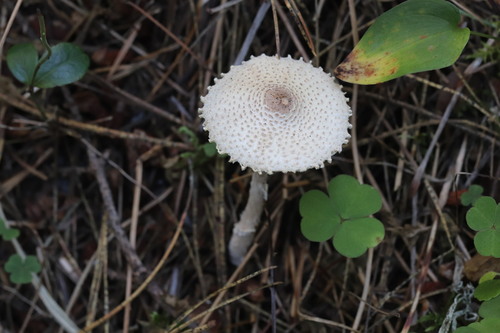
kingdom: Fungi
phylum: Basidiomycota
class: Agaricomycetes
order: Agaricales
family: Agaricaceae
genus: Lepiota
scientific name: Lepiota clypeolaria
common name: Shield dapperling
